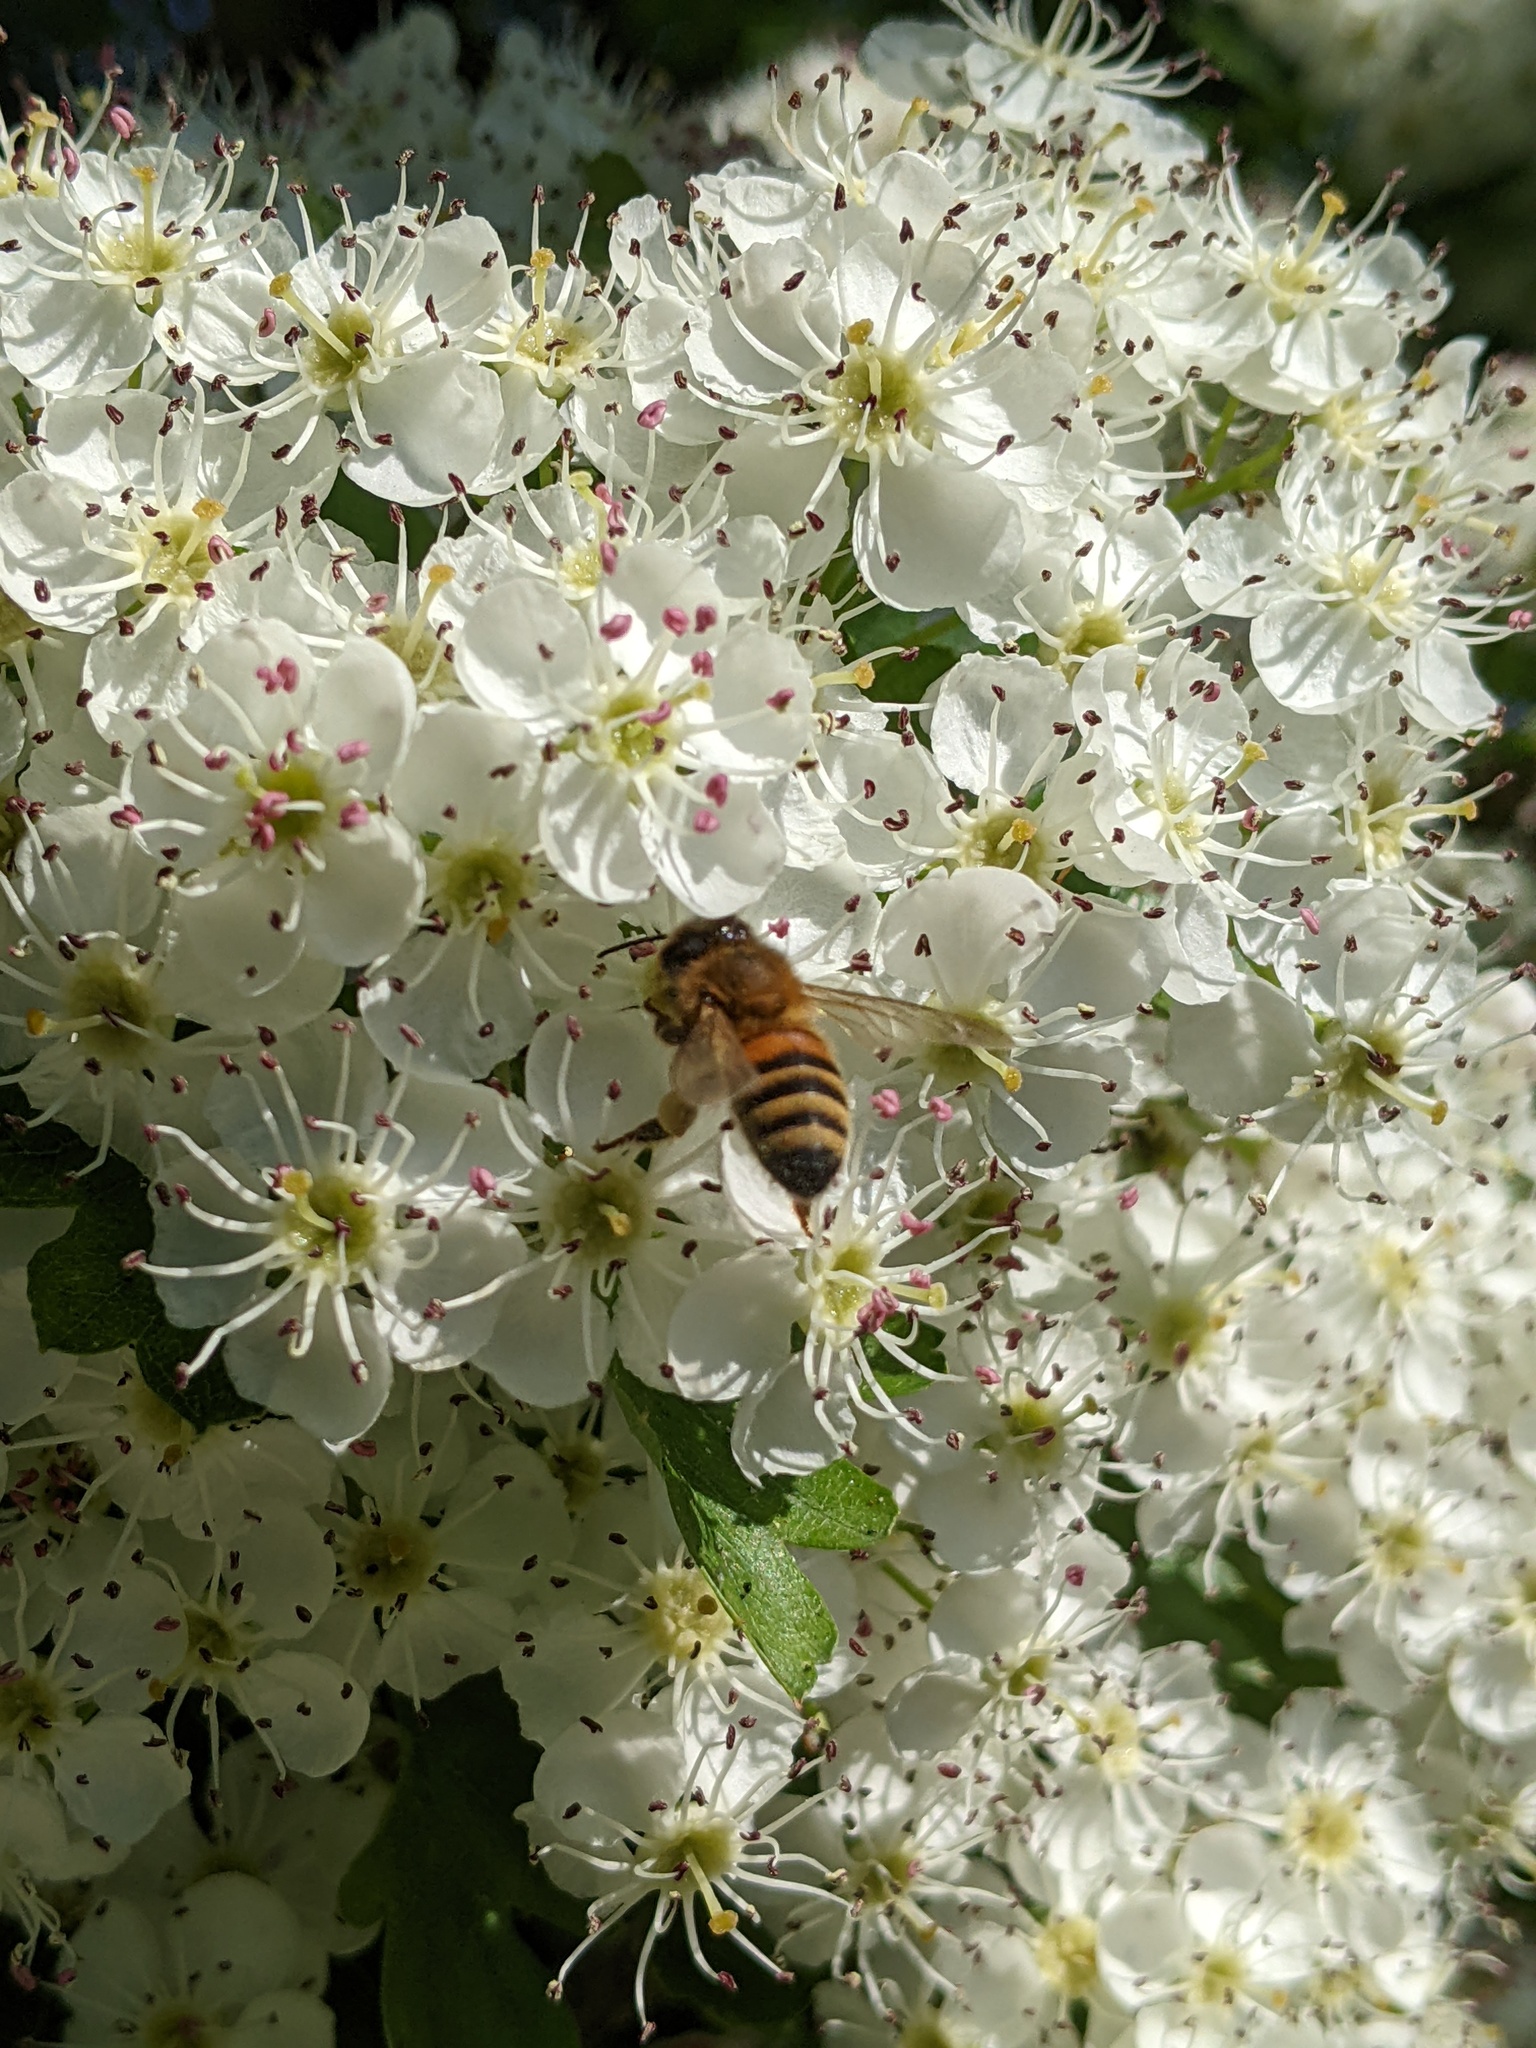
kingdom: Animalia
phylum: Arthropoda
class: Insecta
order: Hymenoptera
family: Apidae
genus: Apis
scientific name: Apis mellifera
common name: Honey bee
